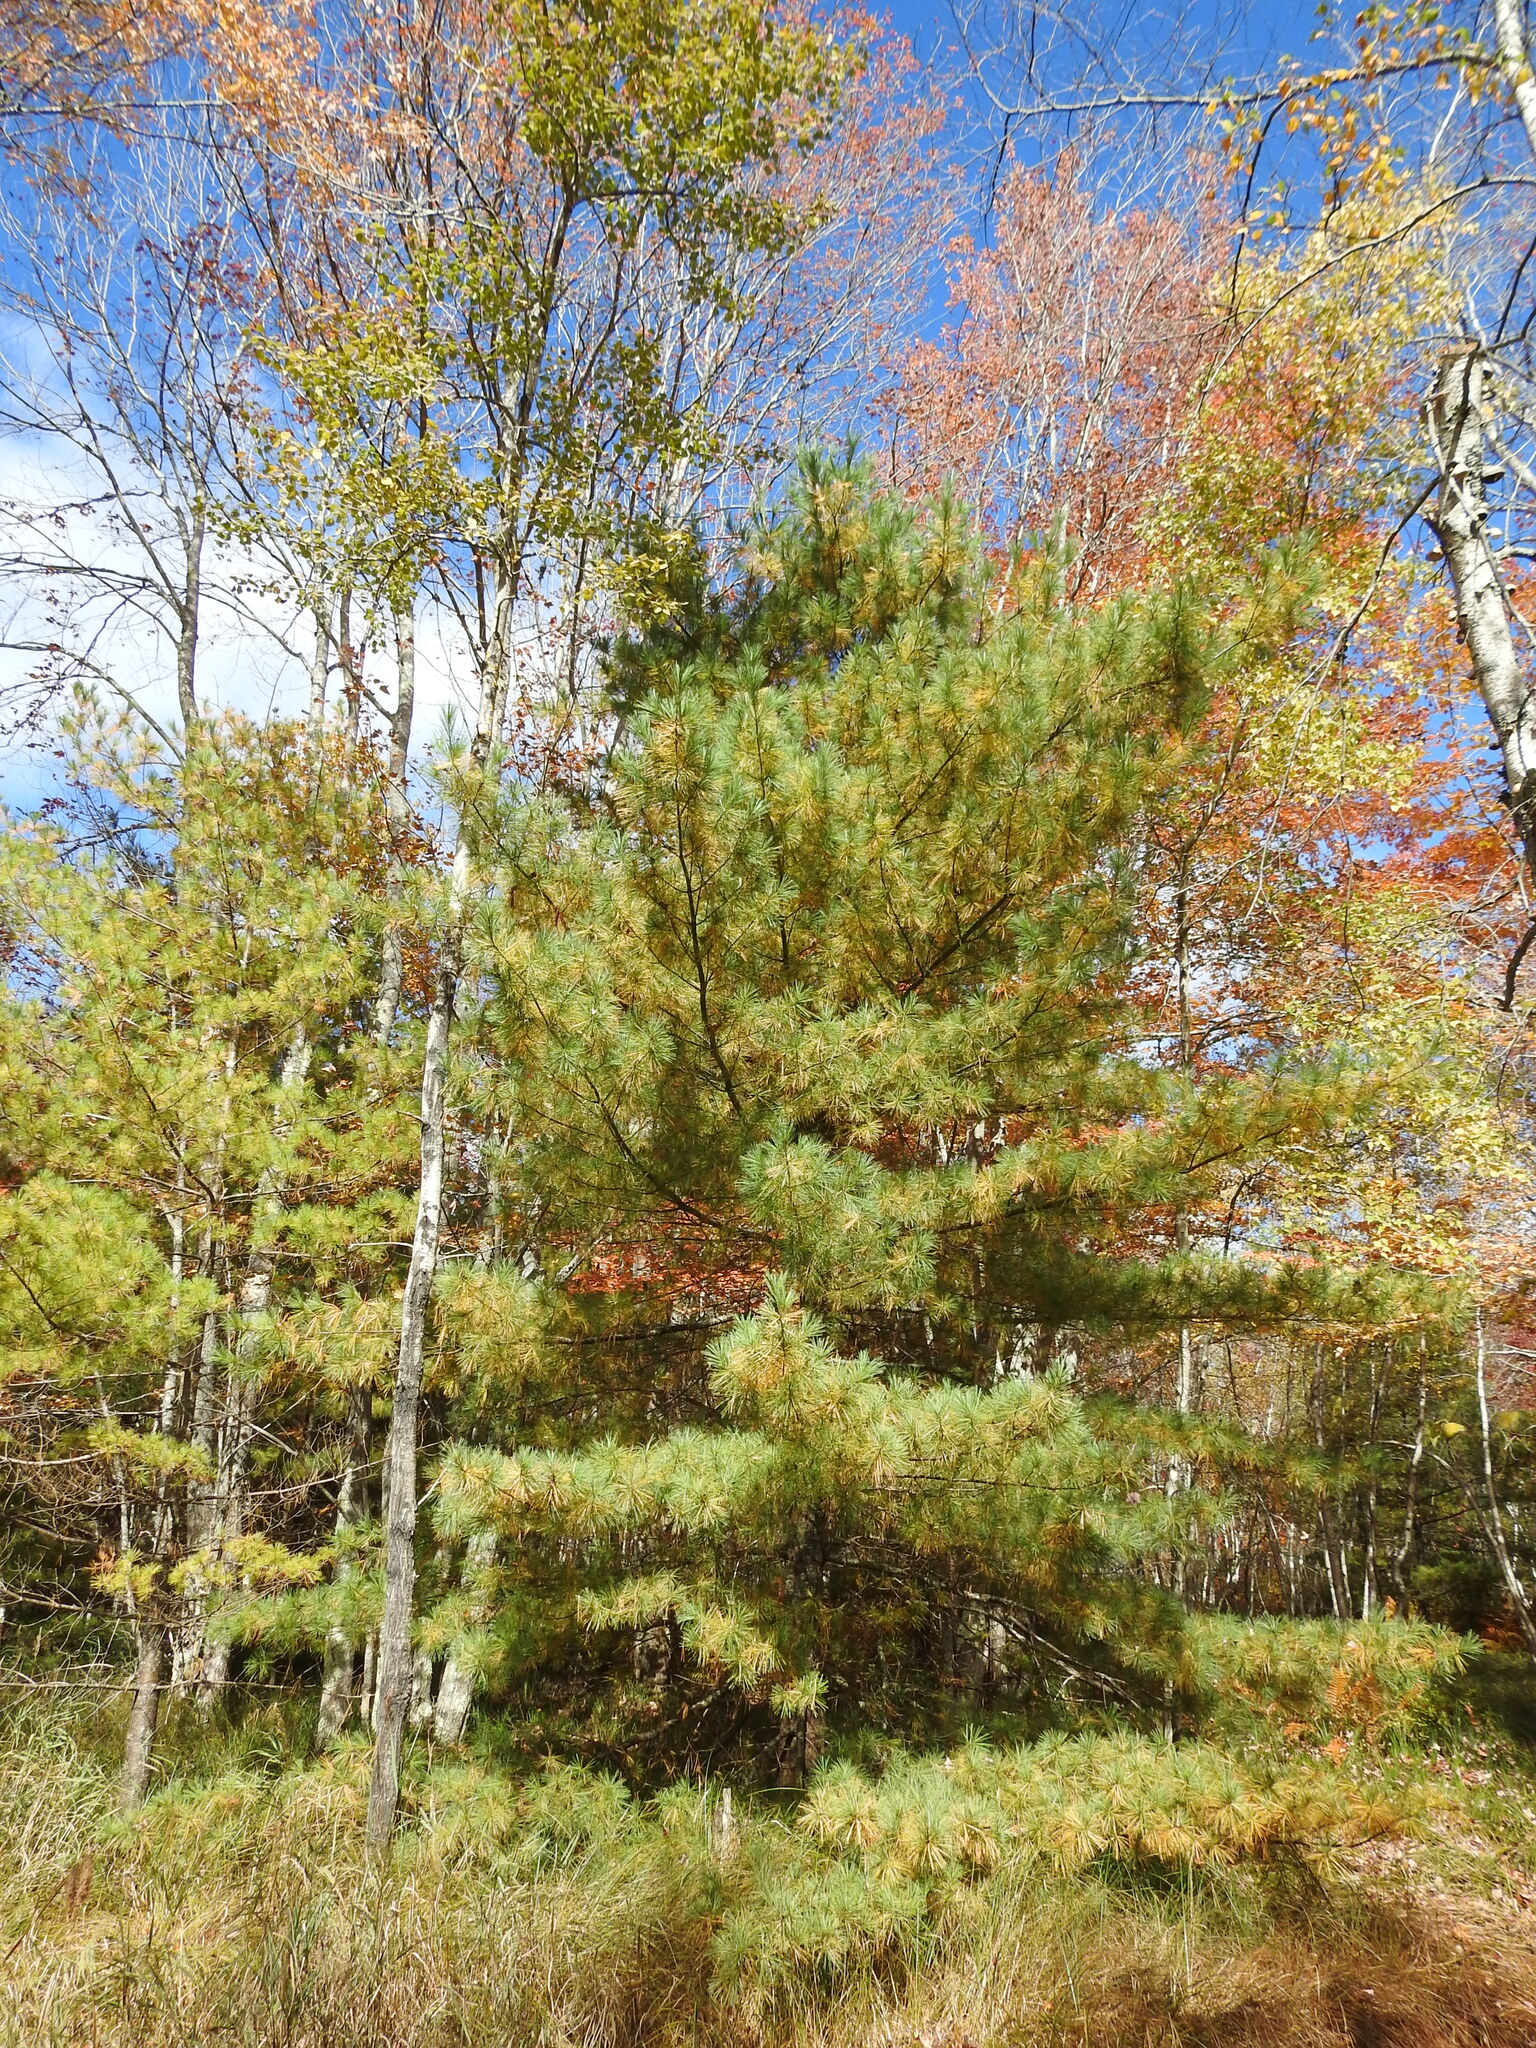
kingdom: Plantae
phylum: Tracheophyta
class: Pinopsida
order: Pinales
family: Pinaceae
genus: Pinus
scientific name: Pinus strobus
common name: Weymouth pine
